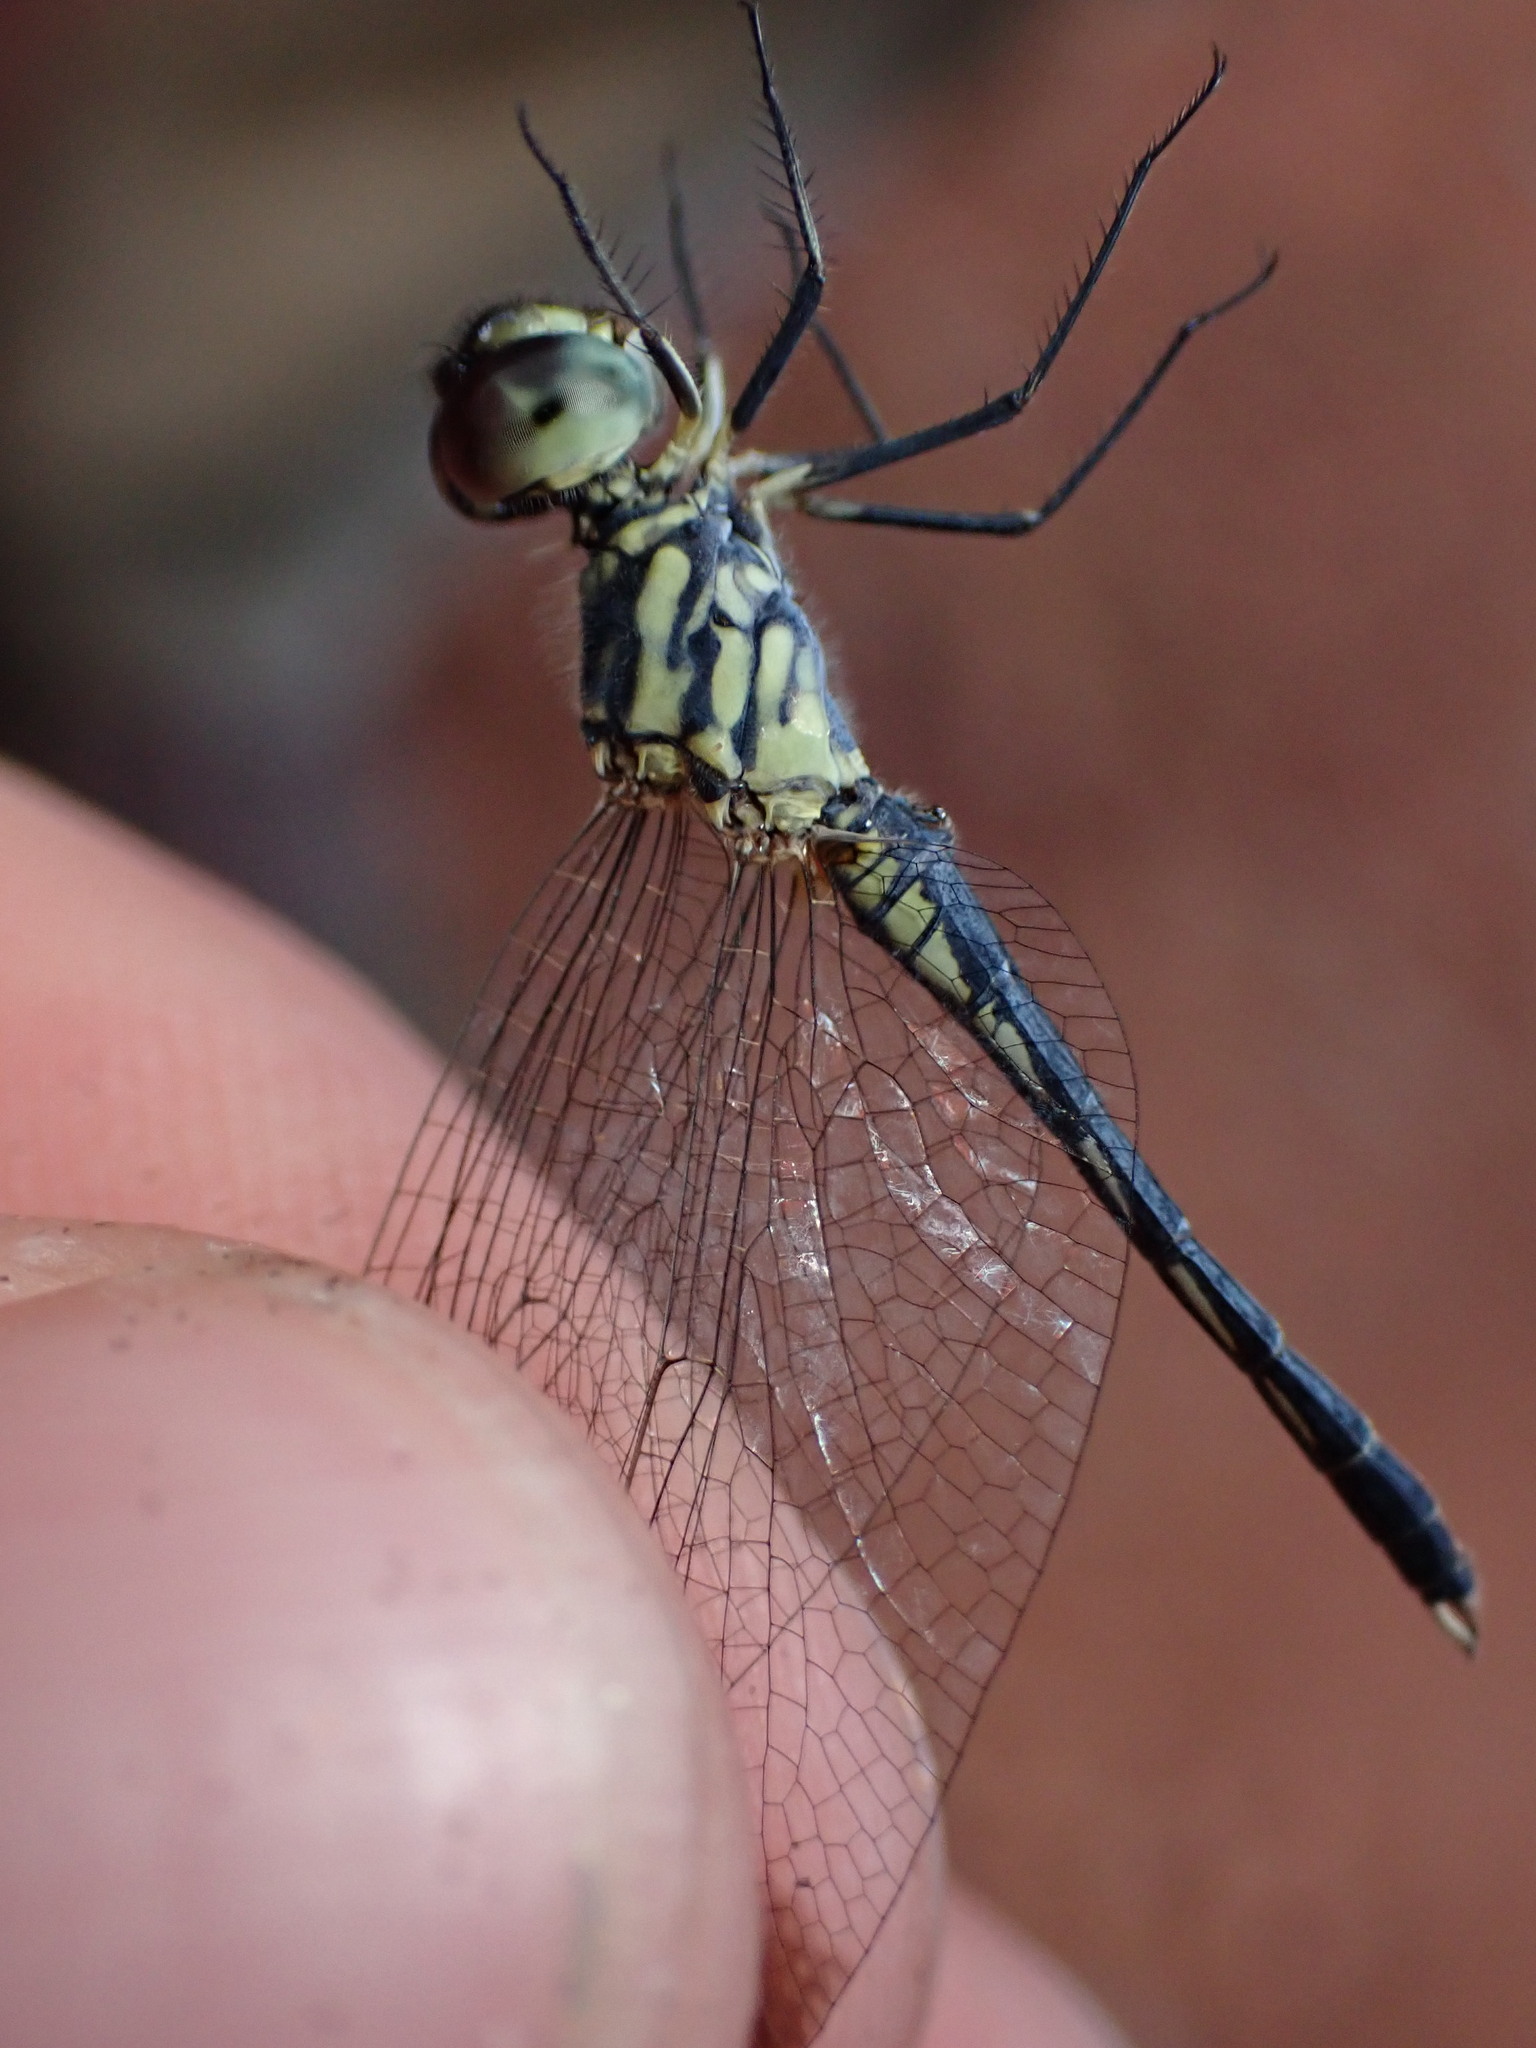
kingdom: Animalia
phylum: Arthropoda
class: Insecta
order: Odonata
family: Libellulidae
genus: Diplacodes
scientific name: Diplacodes nebulosa
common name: Black-tipped percher
